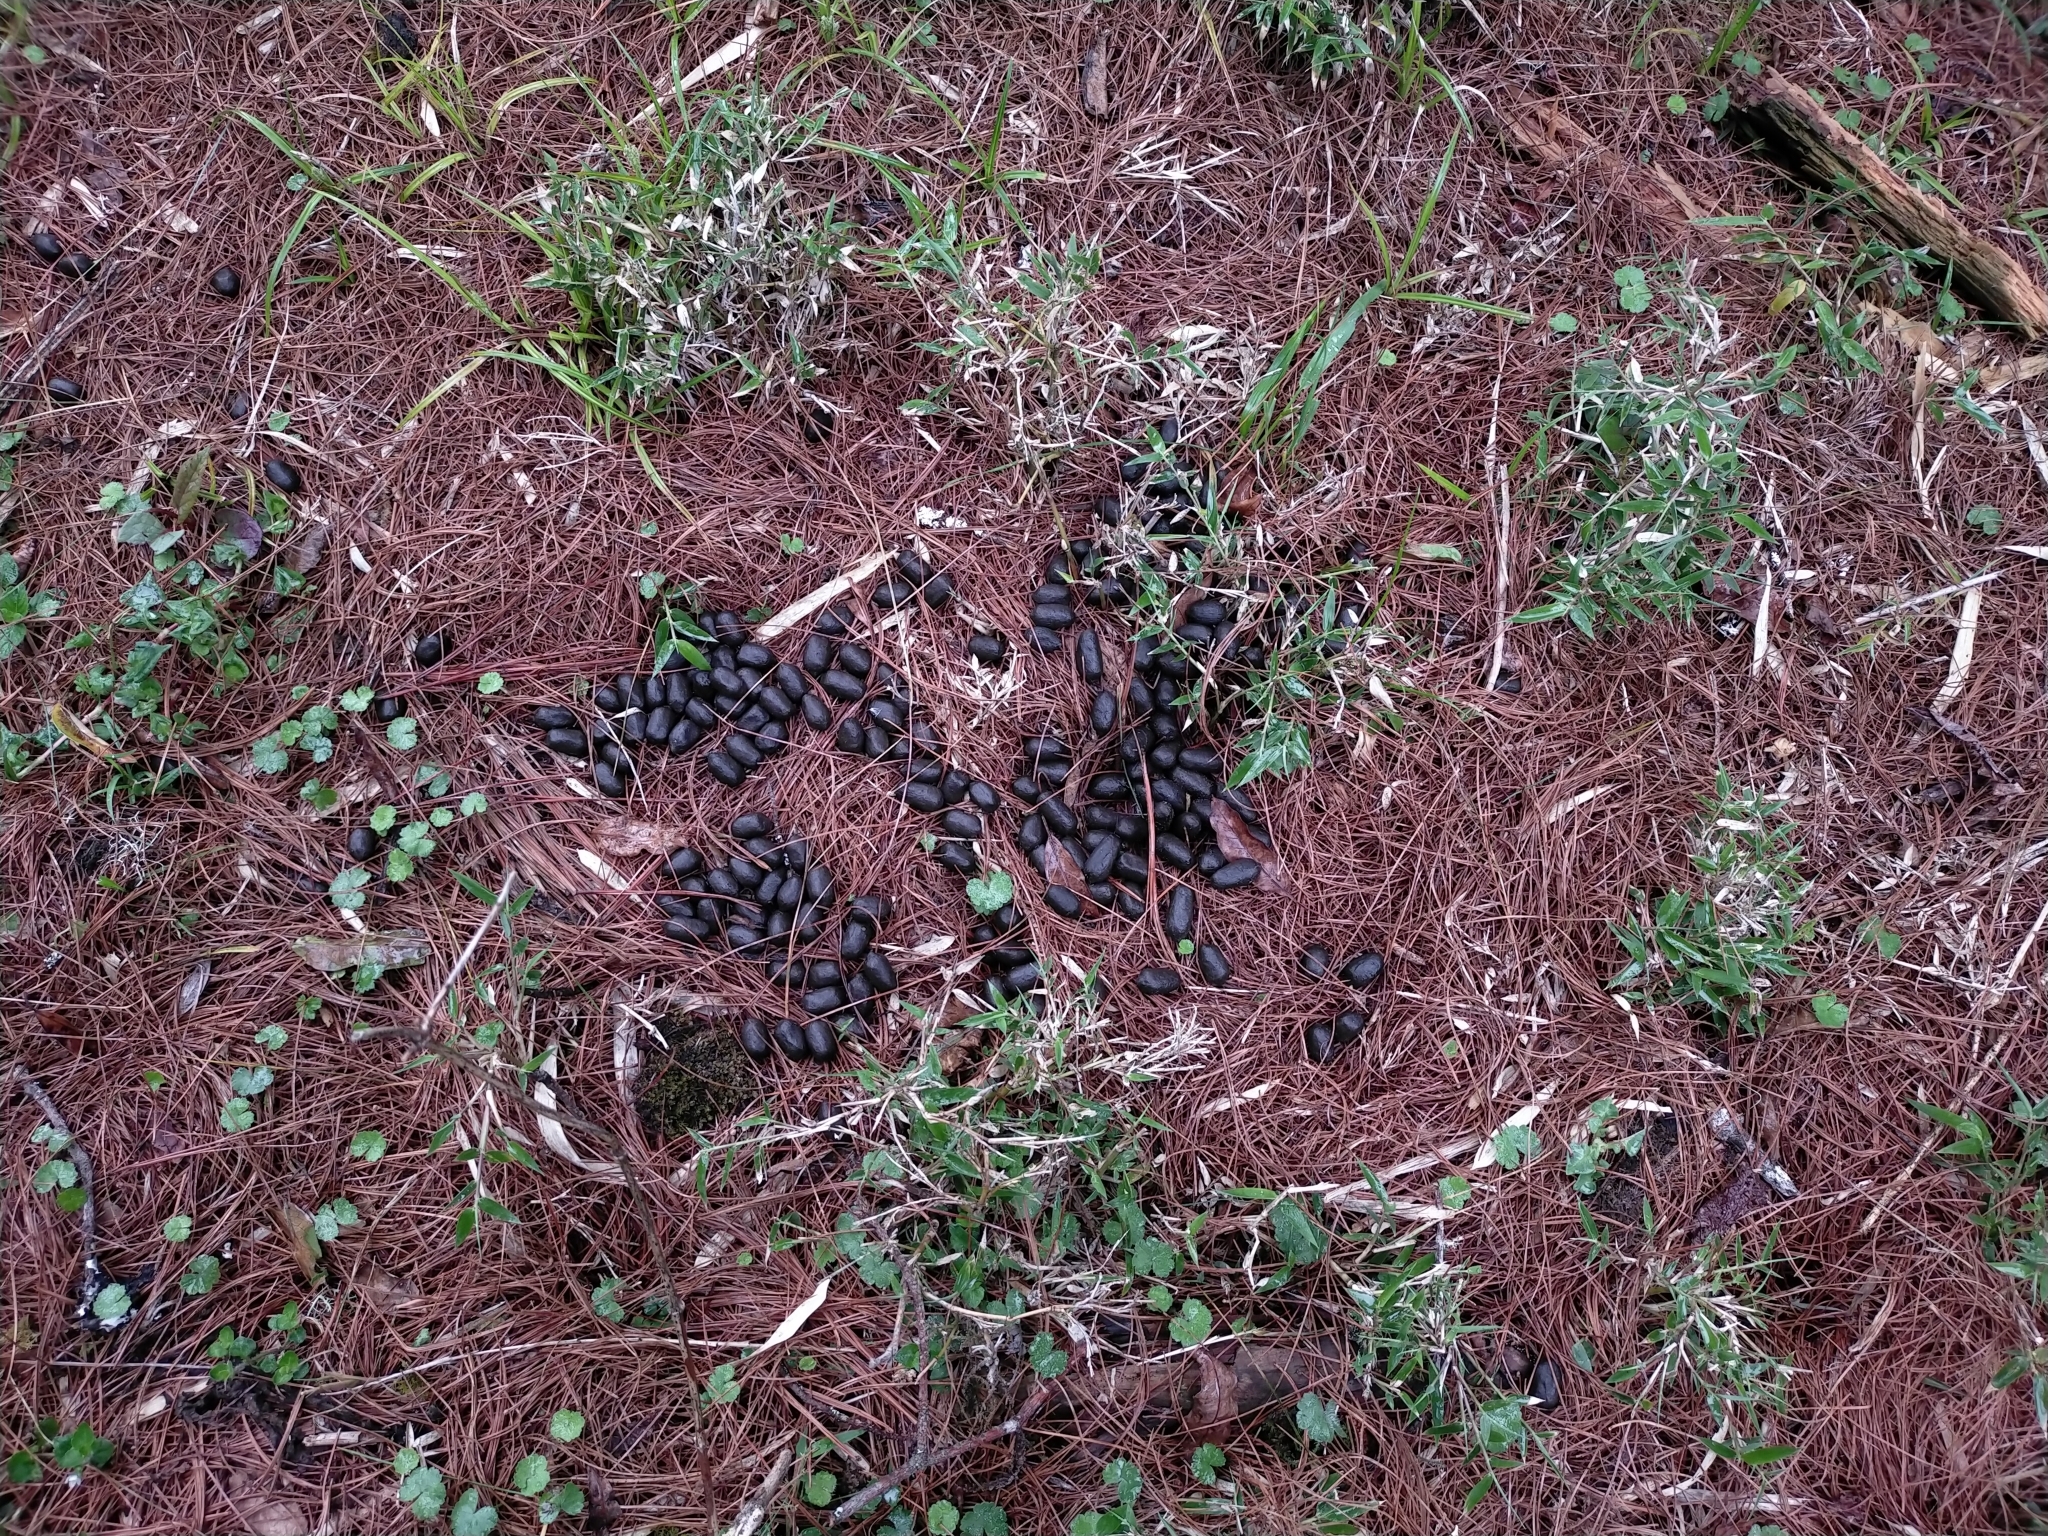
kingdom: Animalia
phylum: Chordata
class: Mammalia
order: Artiodactyla
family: Bovidae
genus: Capricornis
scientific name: Capricornis swinhoei
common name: Formosan serow
